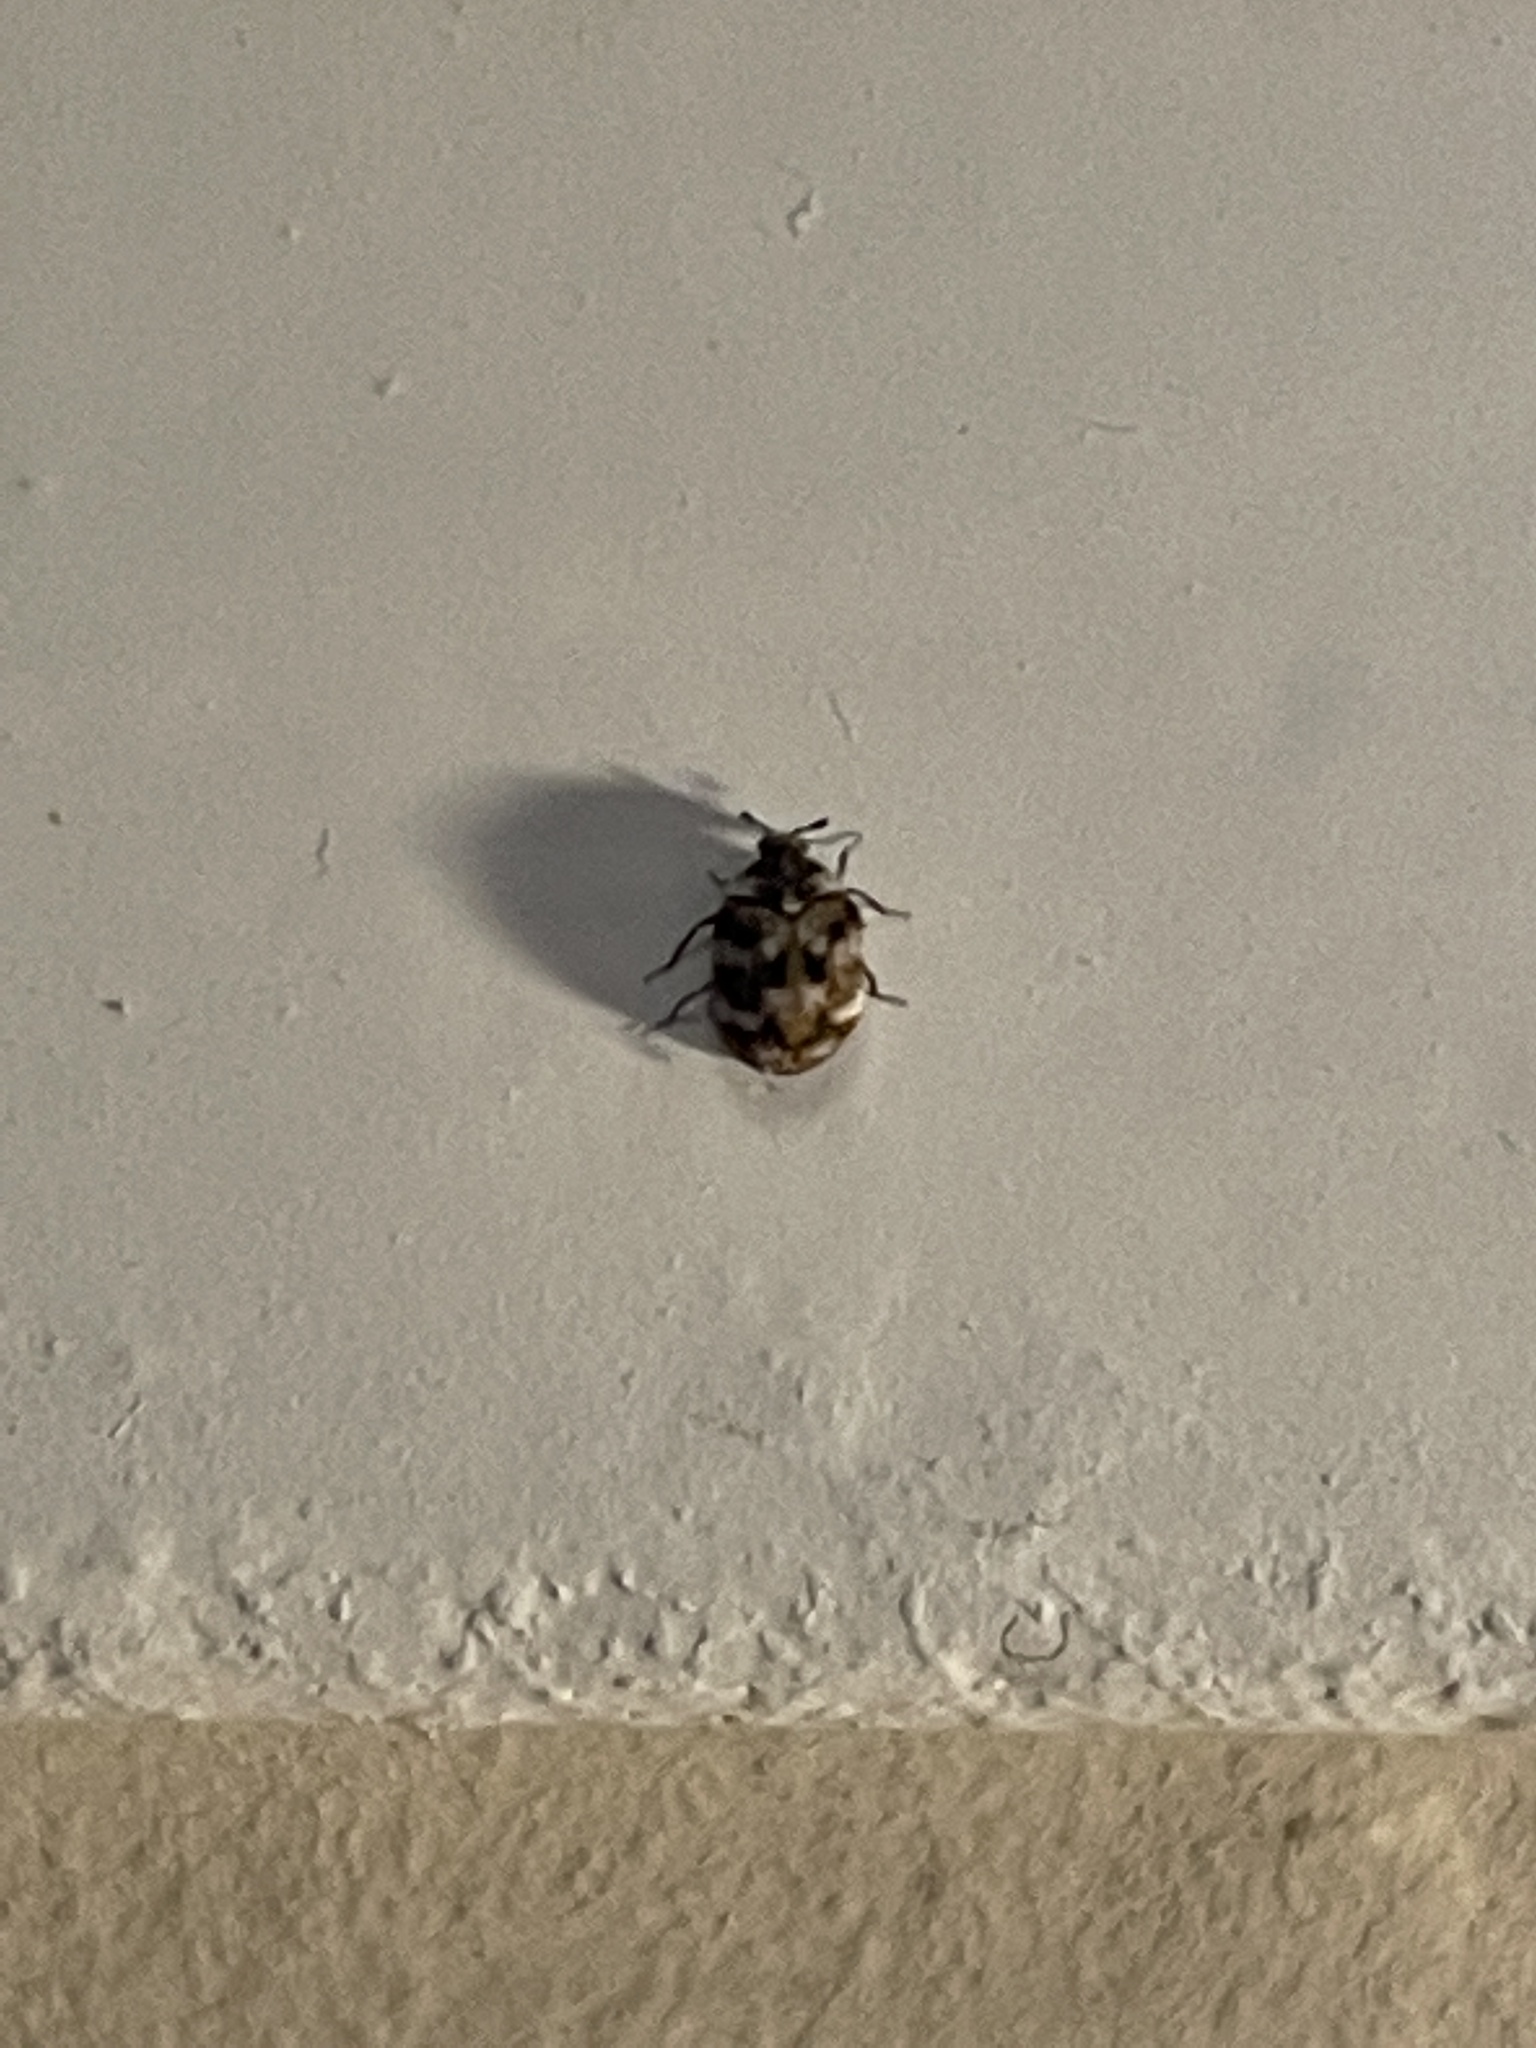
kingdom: Animalia
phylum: Arthropoda
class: Insecta
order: Coleoptera
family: Dermestidae
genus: Anthrenus
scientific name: Anthrenus verbasci
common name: Varied carpet beetle
